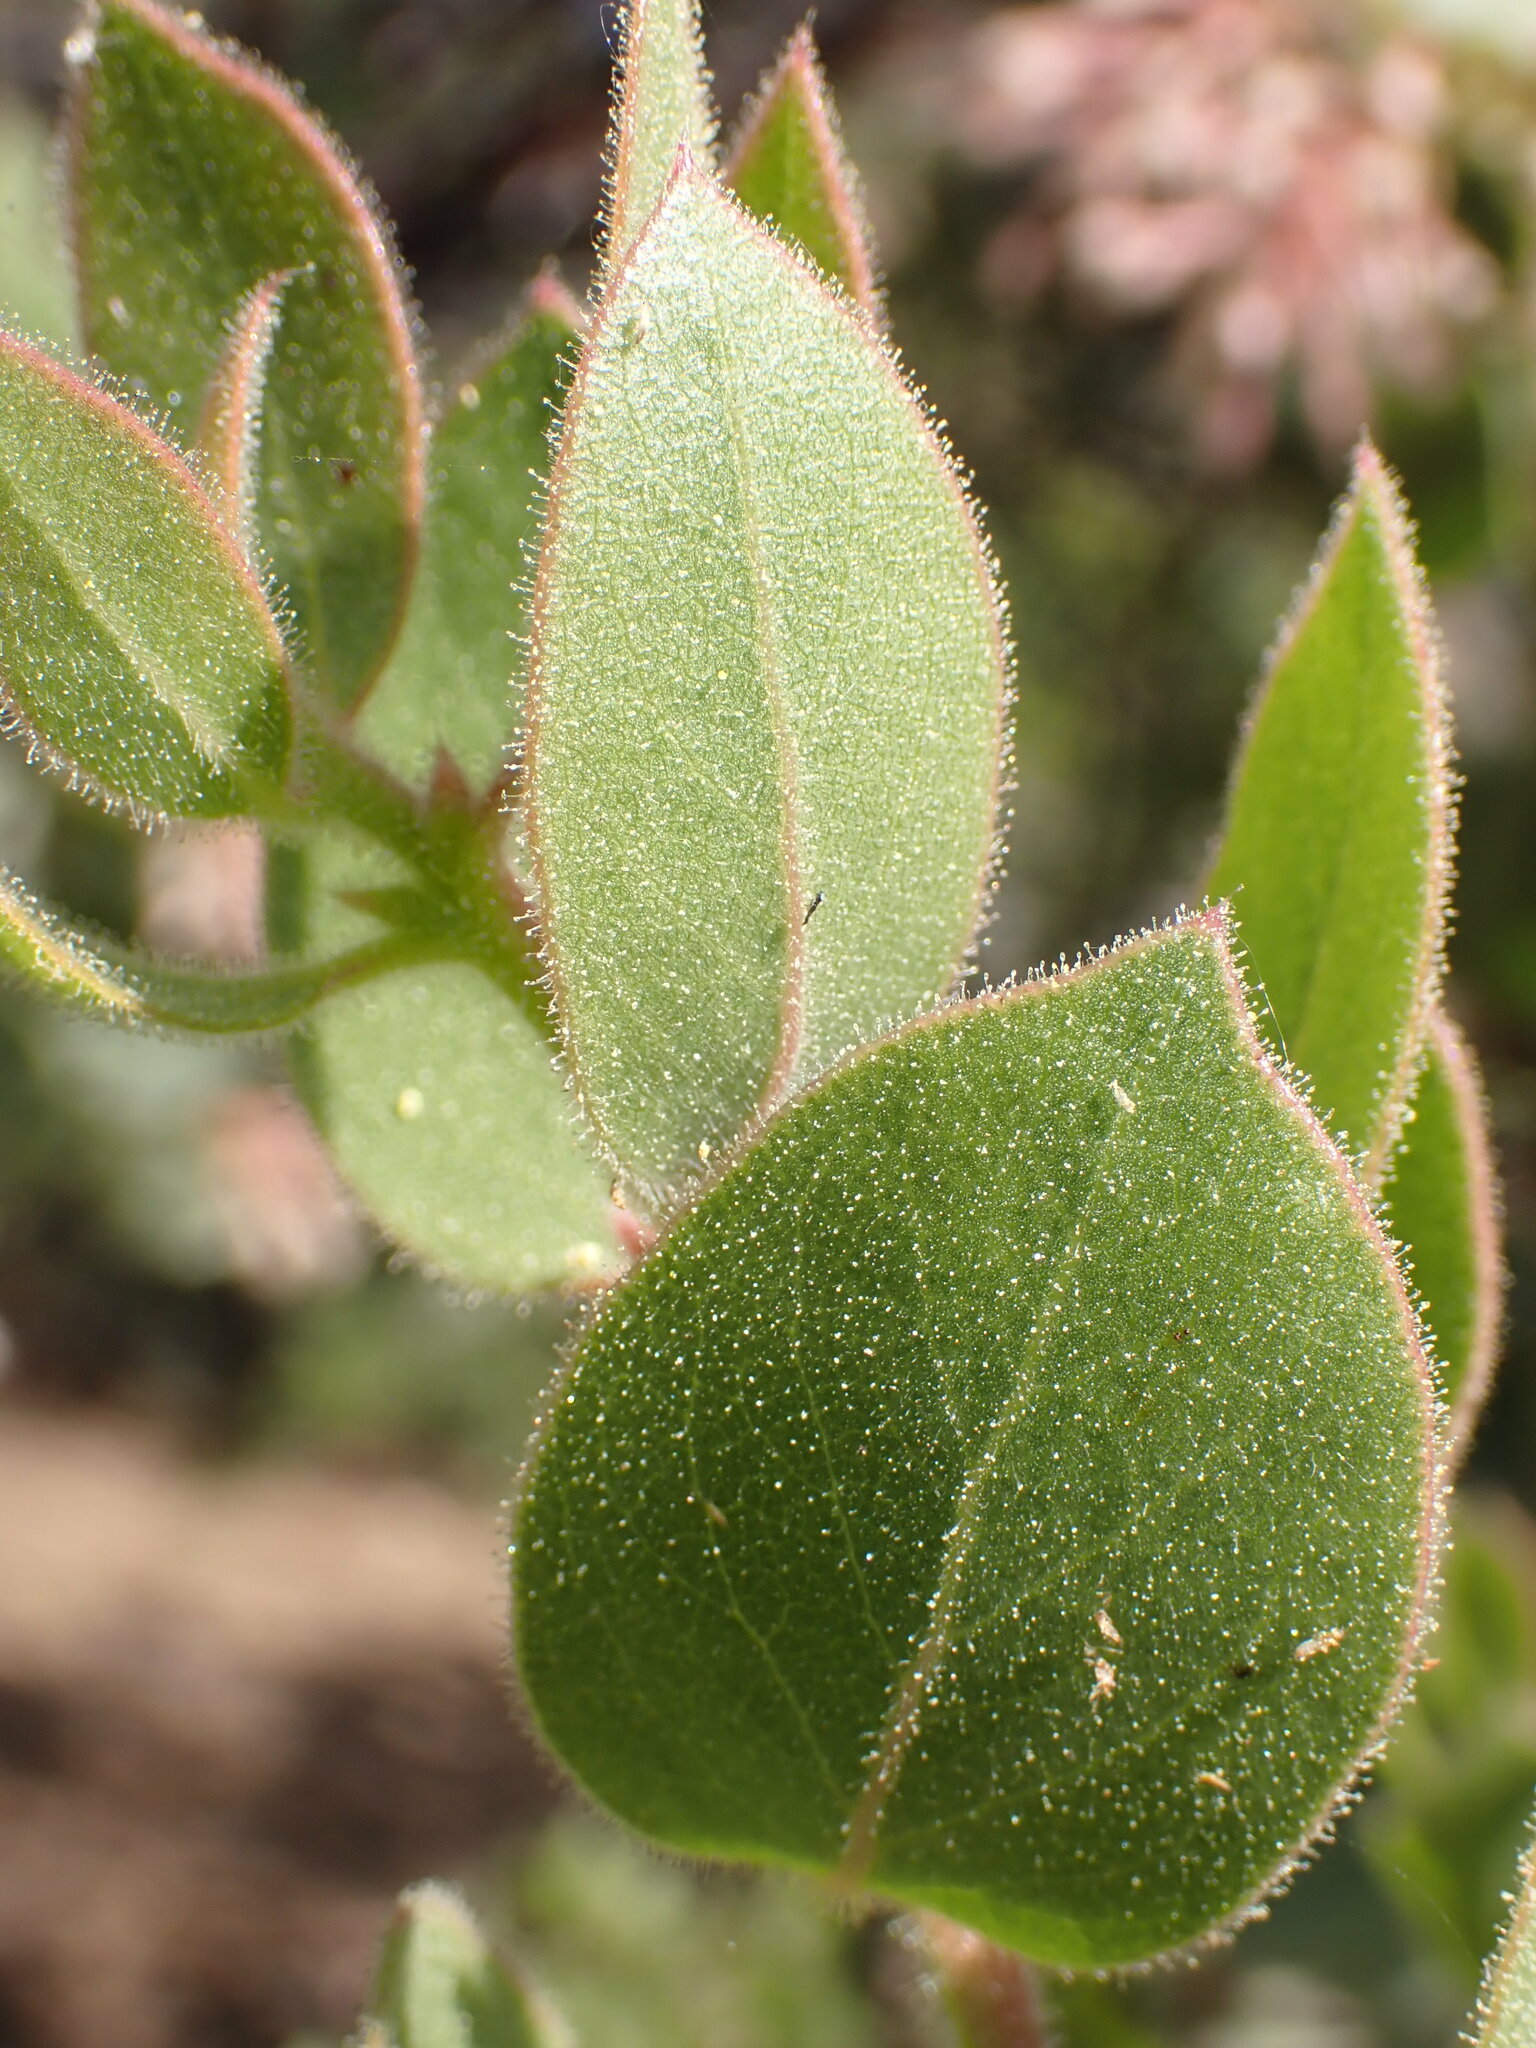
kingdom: Plantae
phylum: Tracheophyta
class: Magnoliopsida
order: Ericales
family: Ericaceae
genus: Arctostaphylos
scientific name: Arctostaphylos pringlei
